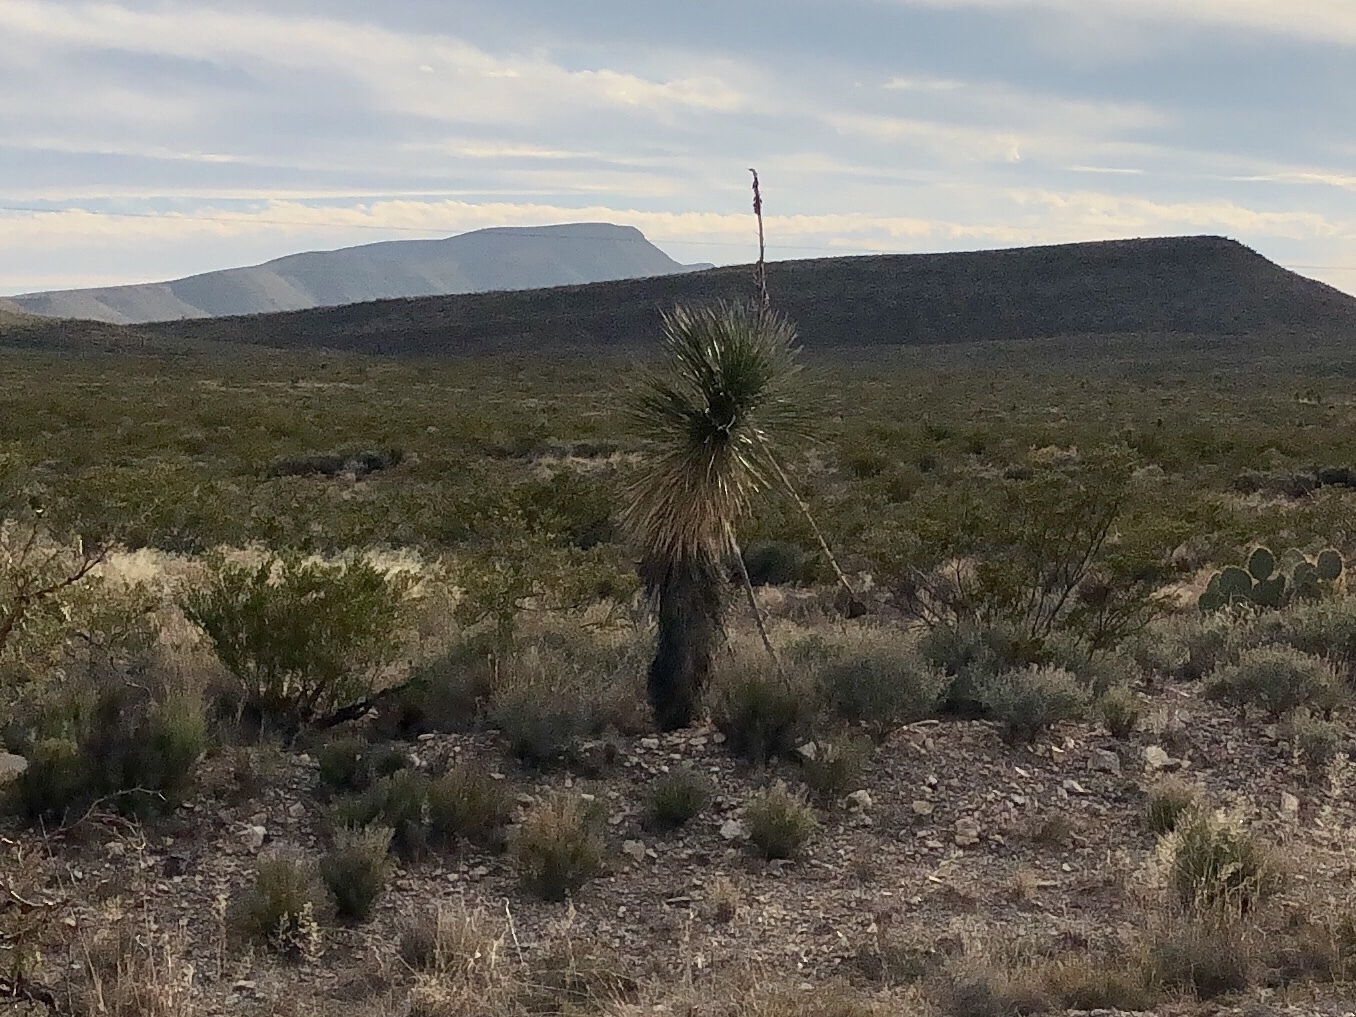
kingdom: Plantae
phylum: Tracheophyta
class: Liliopsida
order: Asparagales
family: Asparagaceae
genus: Yucca
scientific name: Yucca elata
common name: Palmella
